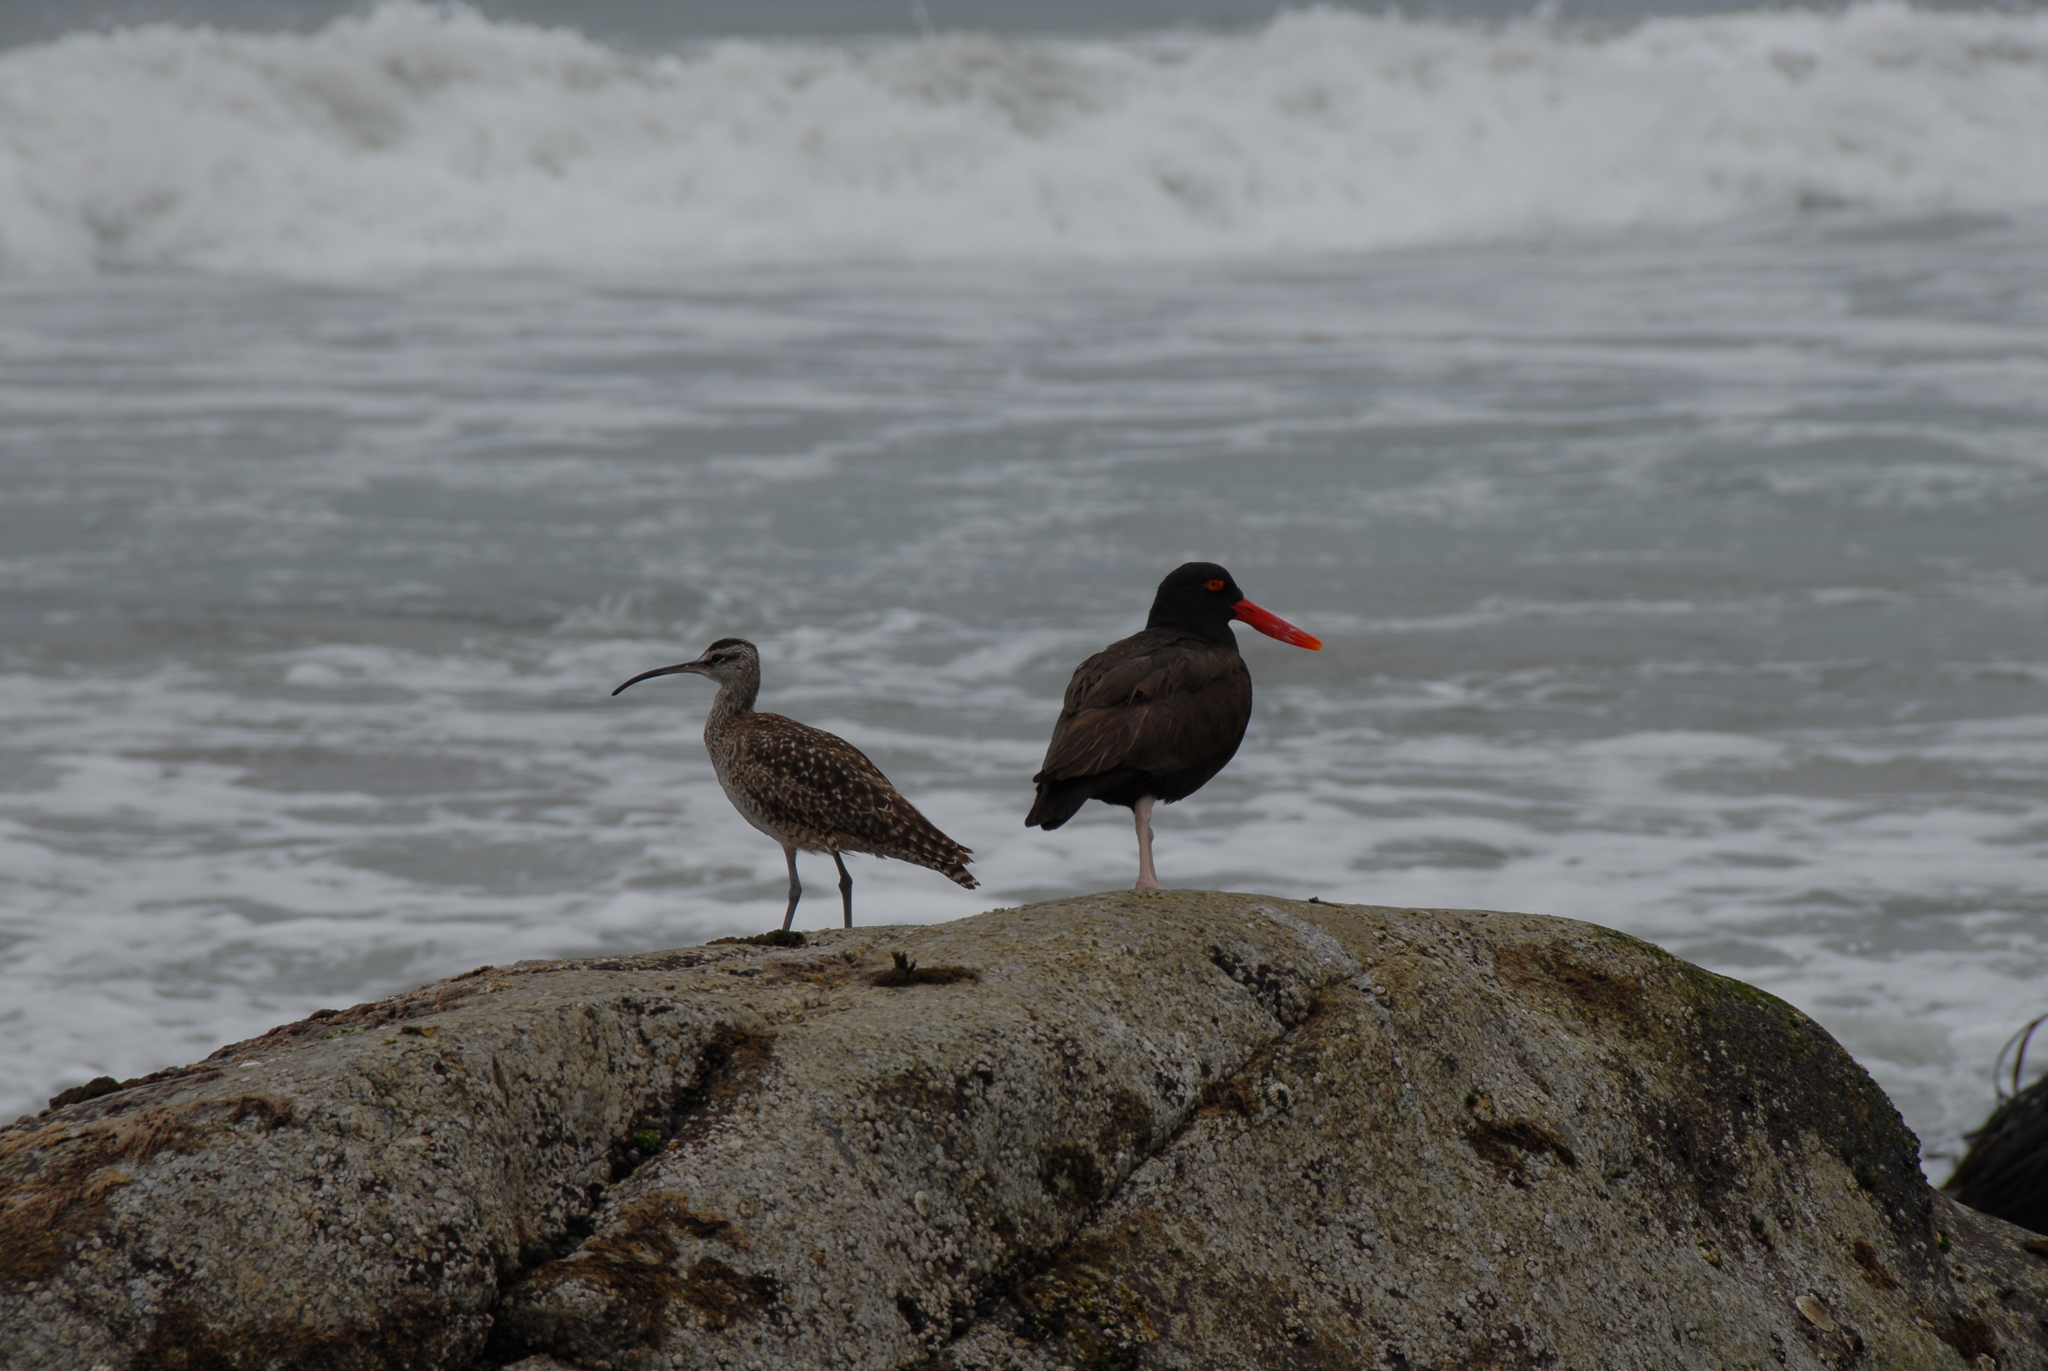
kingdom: Animalia
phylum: Chordata
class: Aves
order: Charadriiformes
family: Haematopodidae
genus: Haematopus
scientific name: Haematopus ater
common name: Blackish oystercatcher
